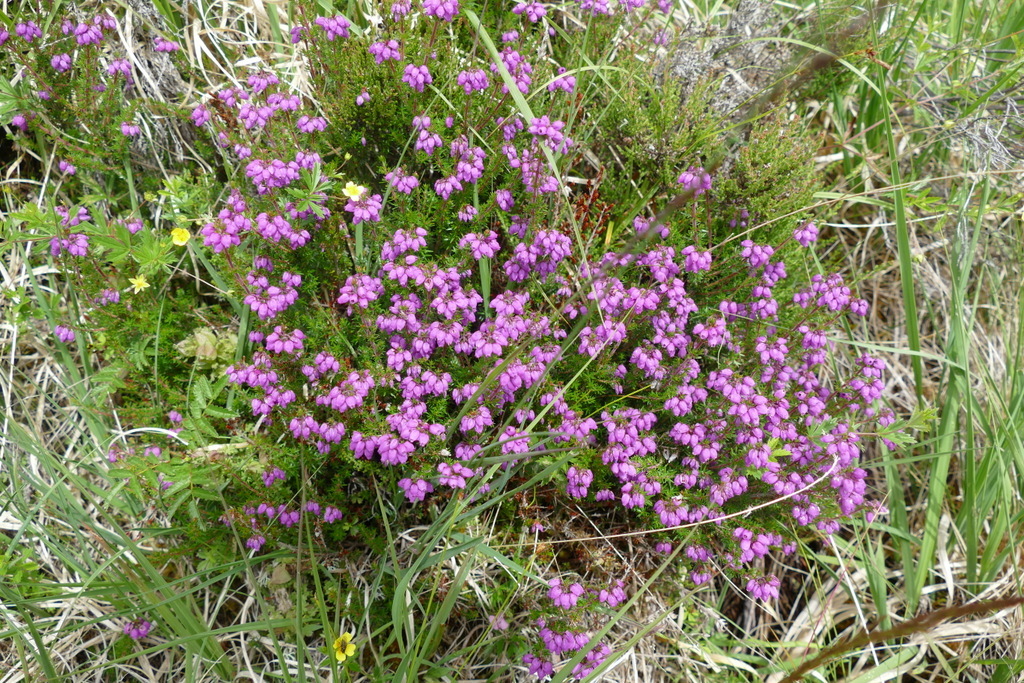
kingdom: Plantae
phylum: Tracheophyta
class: Magnoliopsida
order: Ericales
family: Ericaceae
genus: Erica
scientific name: Erica cinerea
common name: Bell heather
